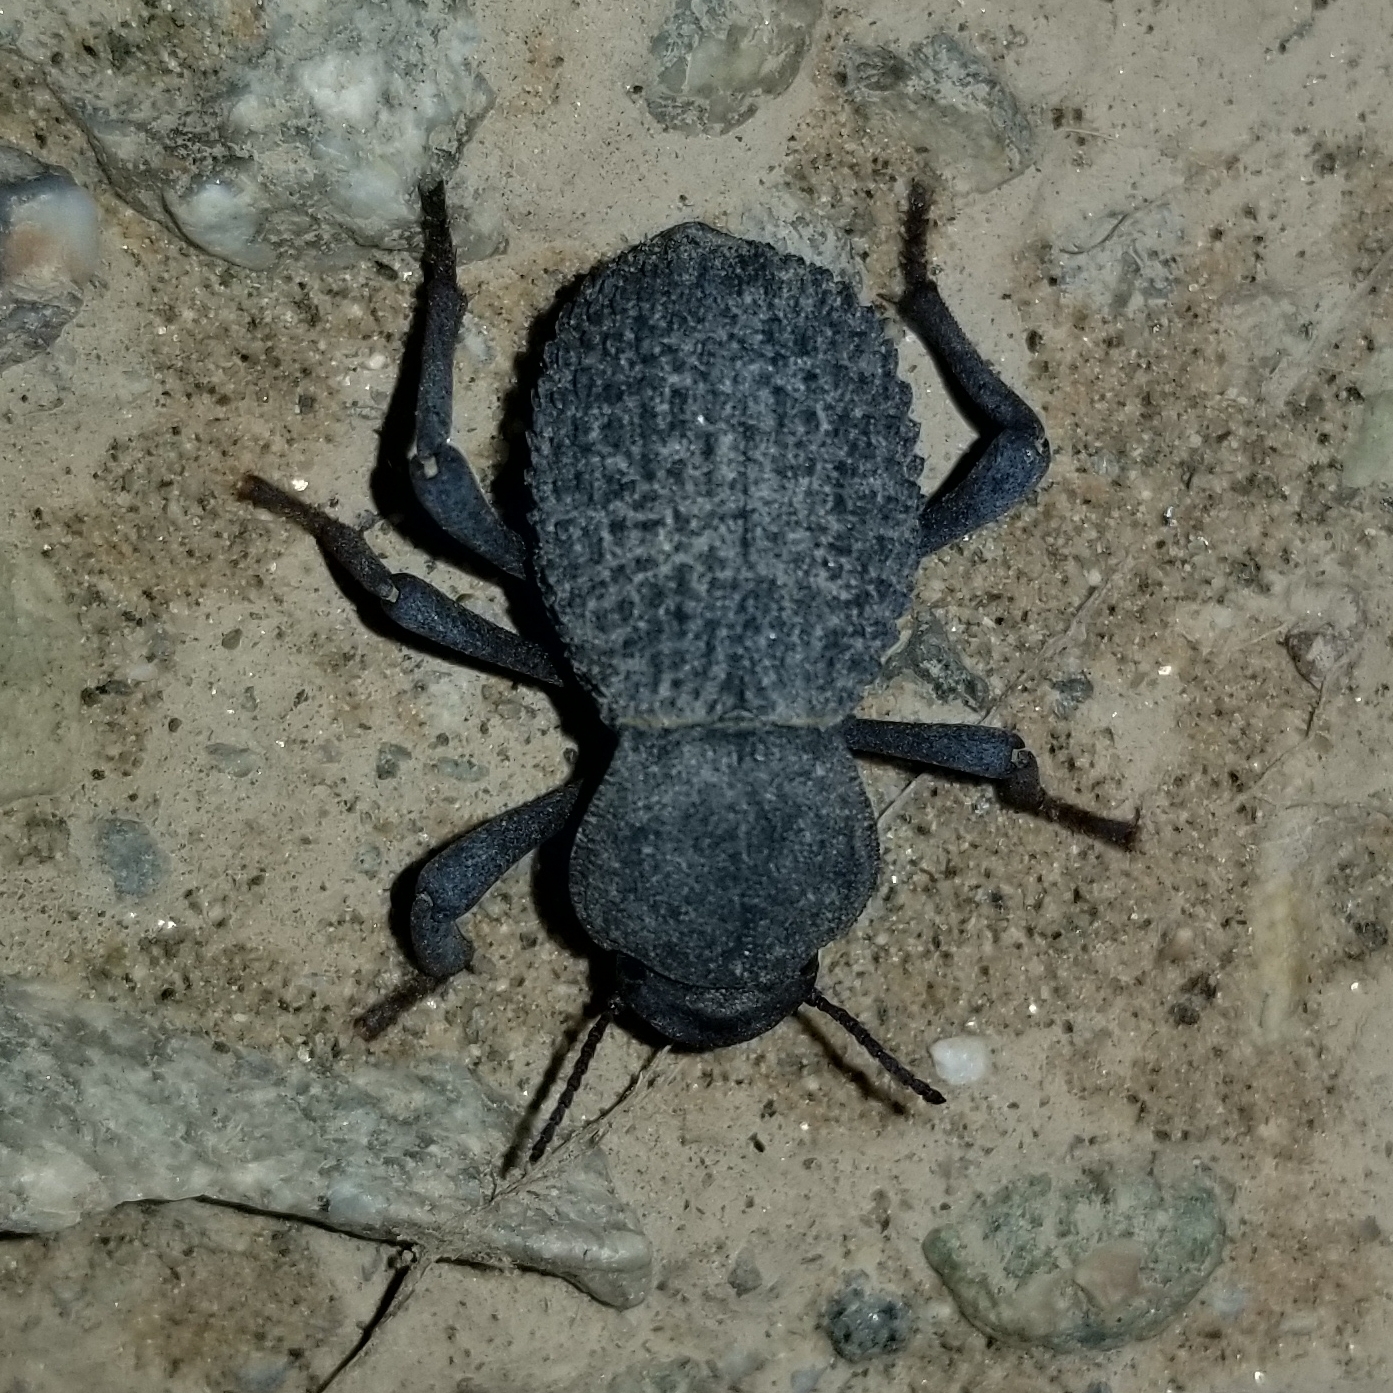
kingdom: Animalia
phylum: Arthropoda
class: Insecta
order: Coleoptera
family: Tenebrionidae
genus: Asbolus
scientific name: Asbolus verrucosus
